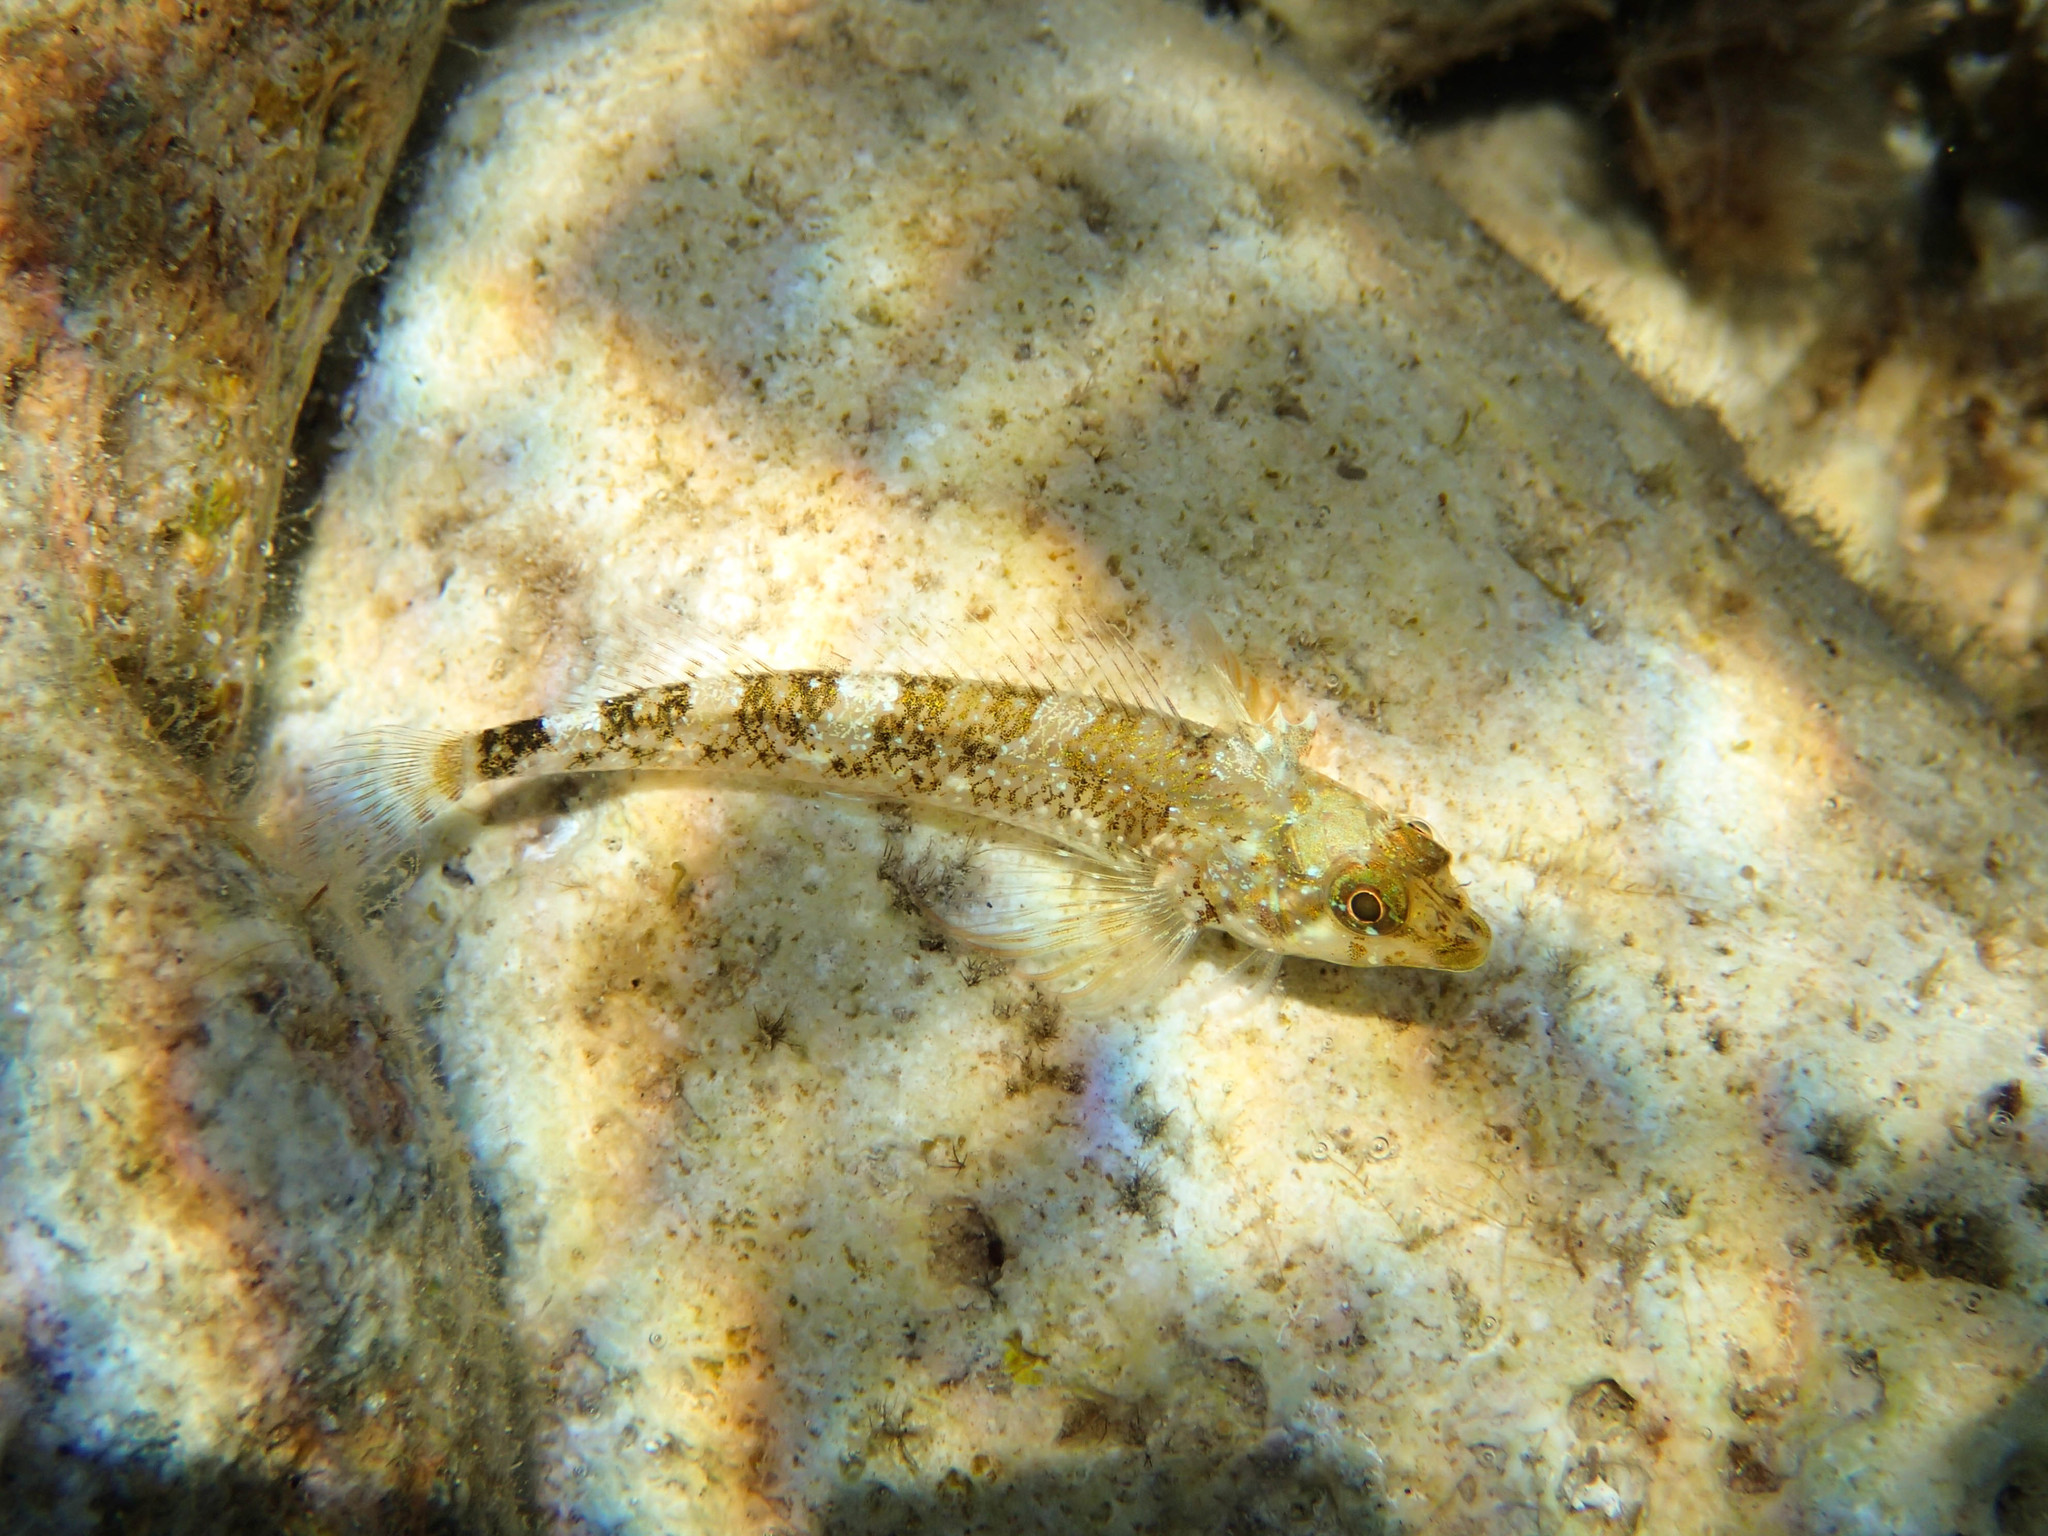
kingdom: Animalia
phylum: Chordata
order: Perciformes
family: Tripterygiidae
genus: Tripterygion
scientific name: Tripterygion tripteronotum
